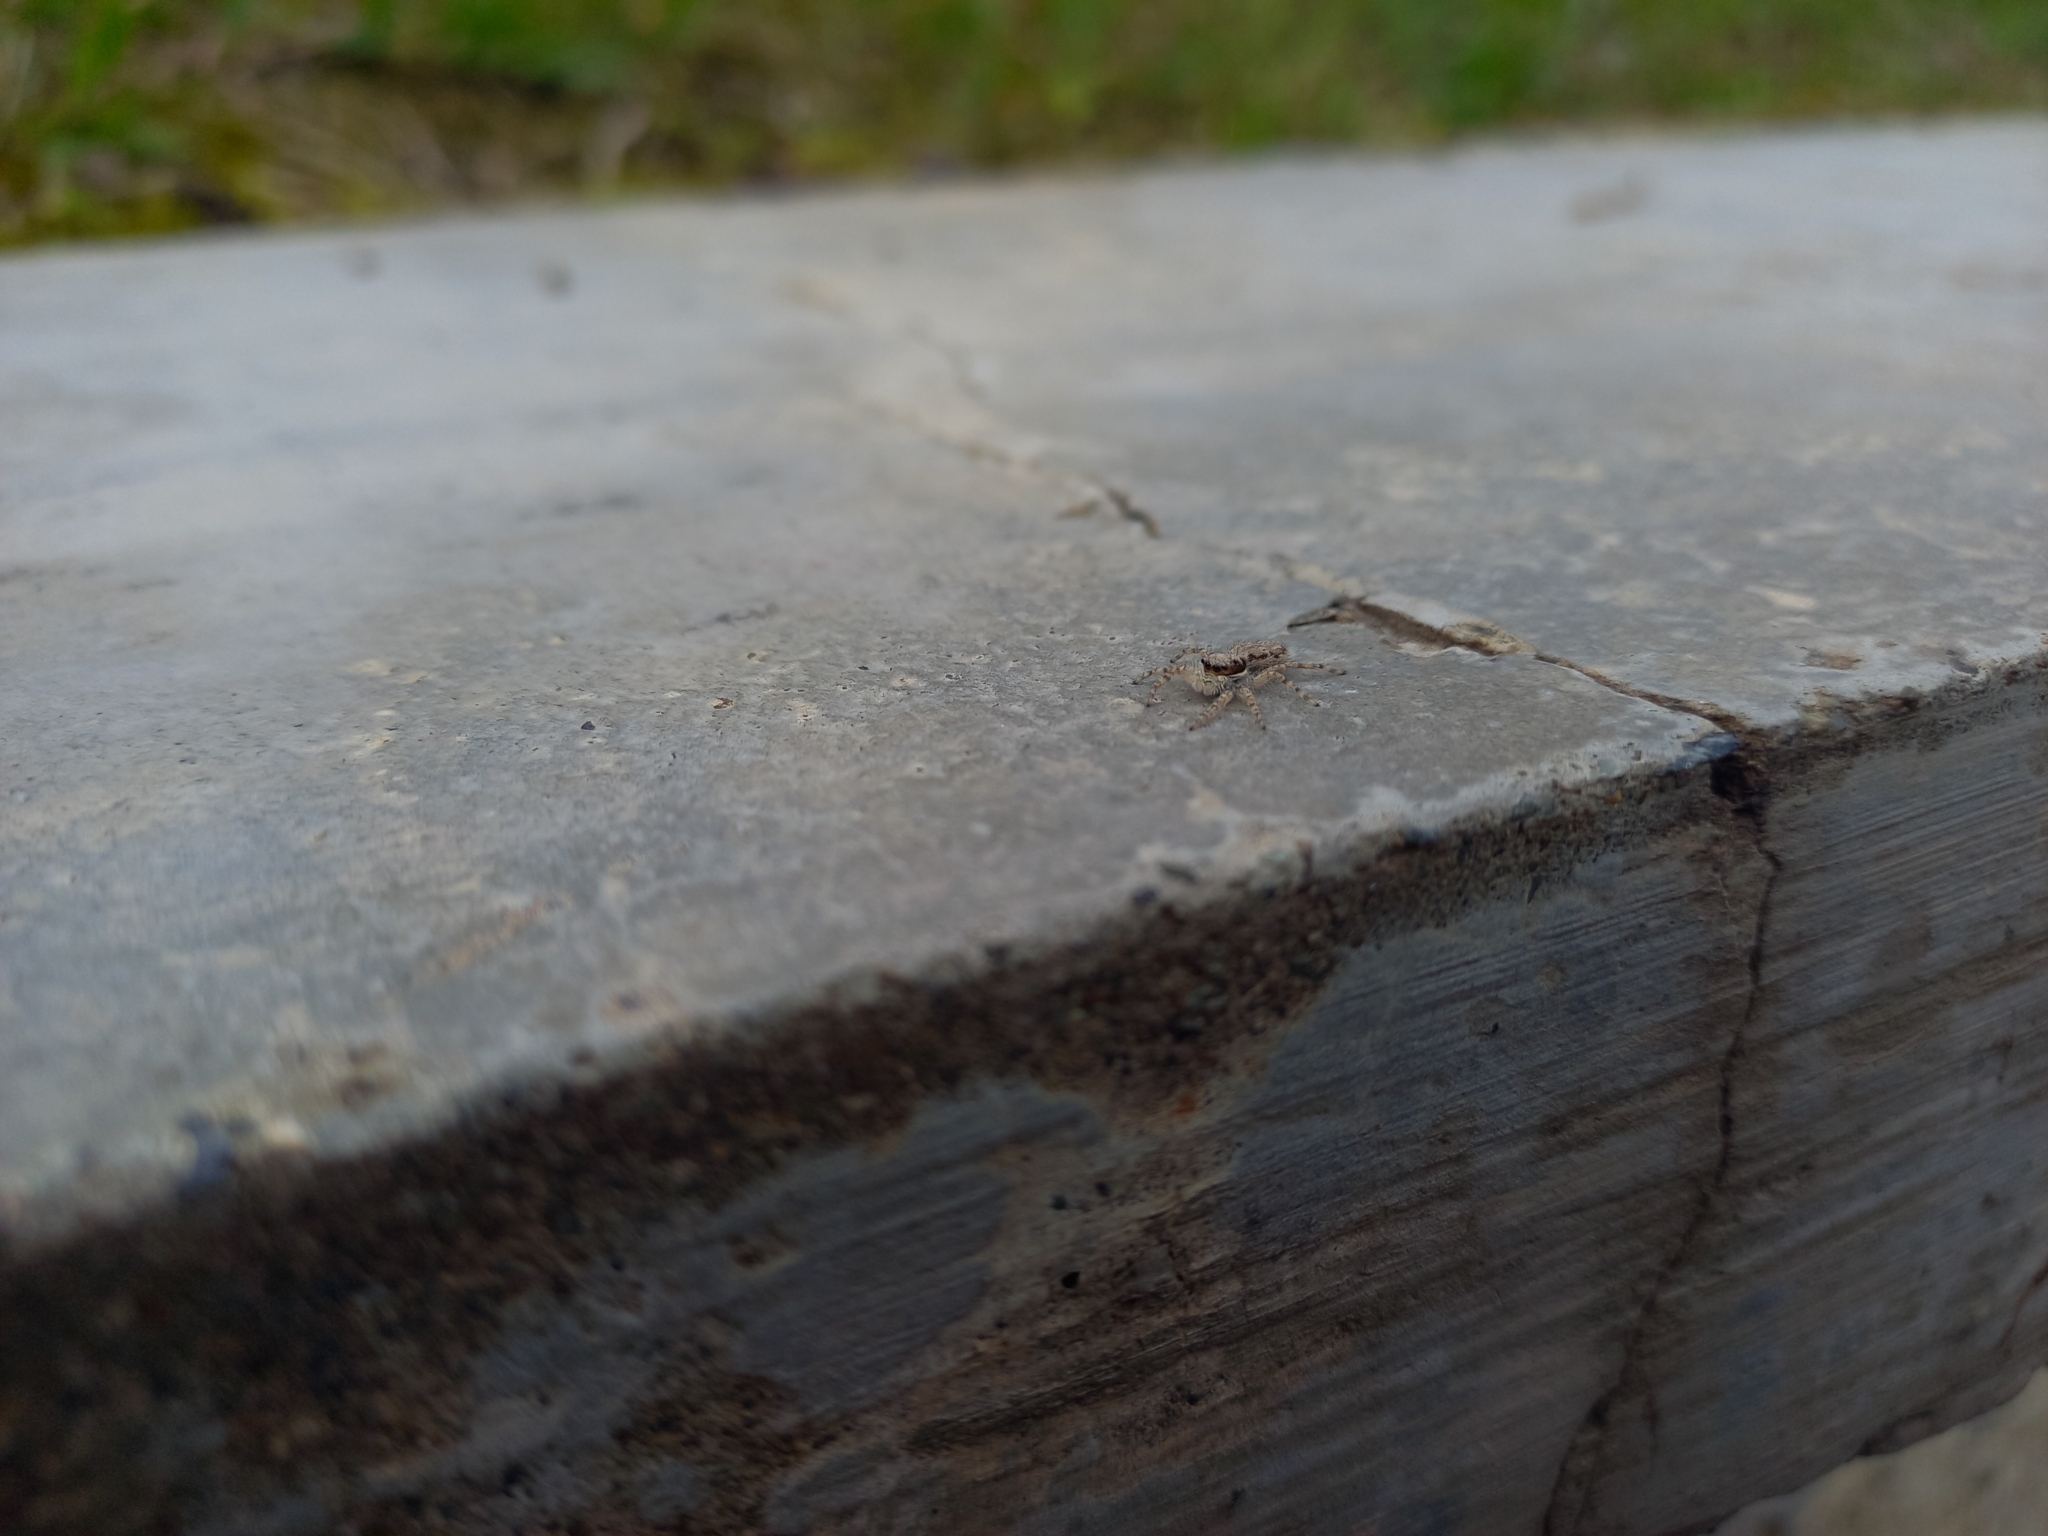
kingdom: Animalia
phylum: Arthropoda
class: Arachnida
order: Araneae
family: Salticidae
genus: Menemerus
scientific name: Menemerus bivittatus
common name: Gray wall jumper
